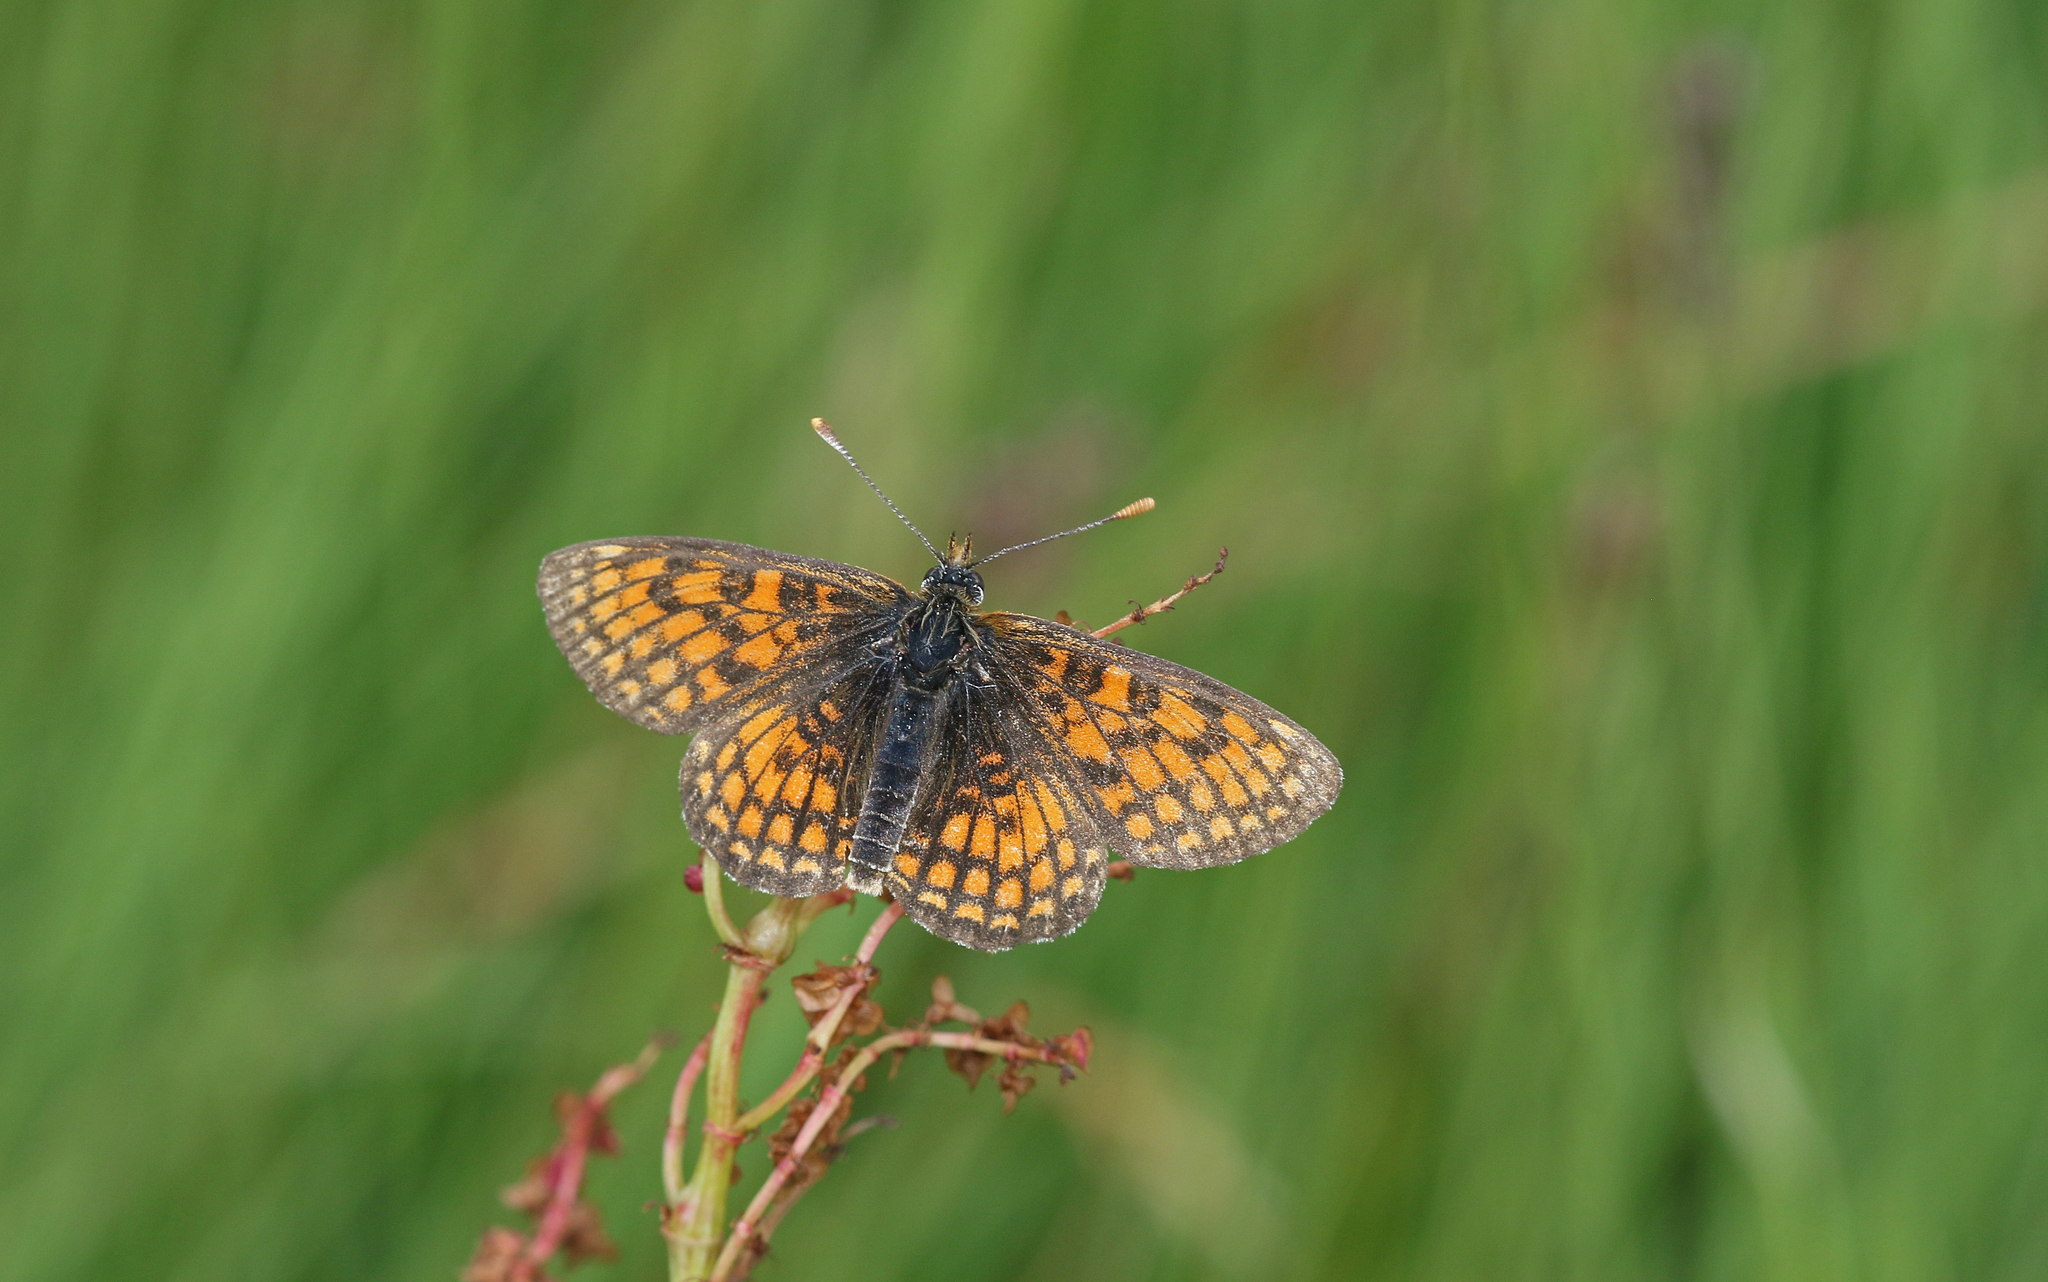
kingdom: Animalia
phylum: Arthropoda
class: Insecta
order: Lepidoptera
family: Nymphalidae
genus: Mellicta
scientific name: Mellicta parthenoides
